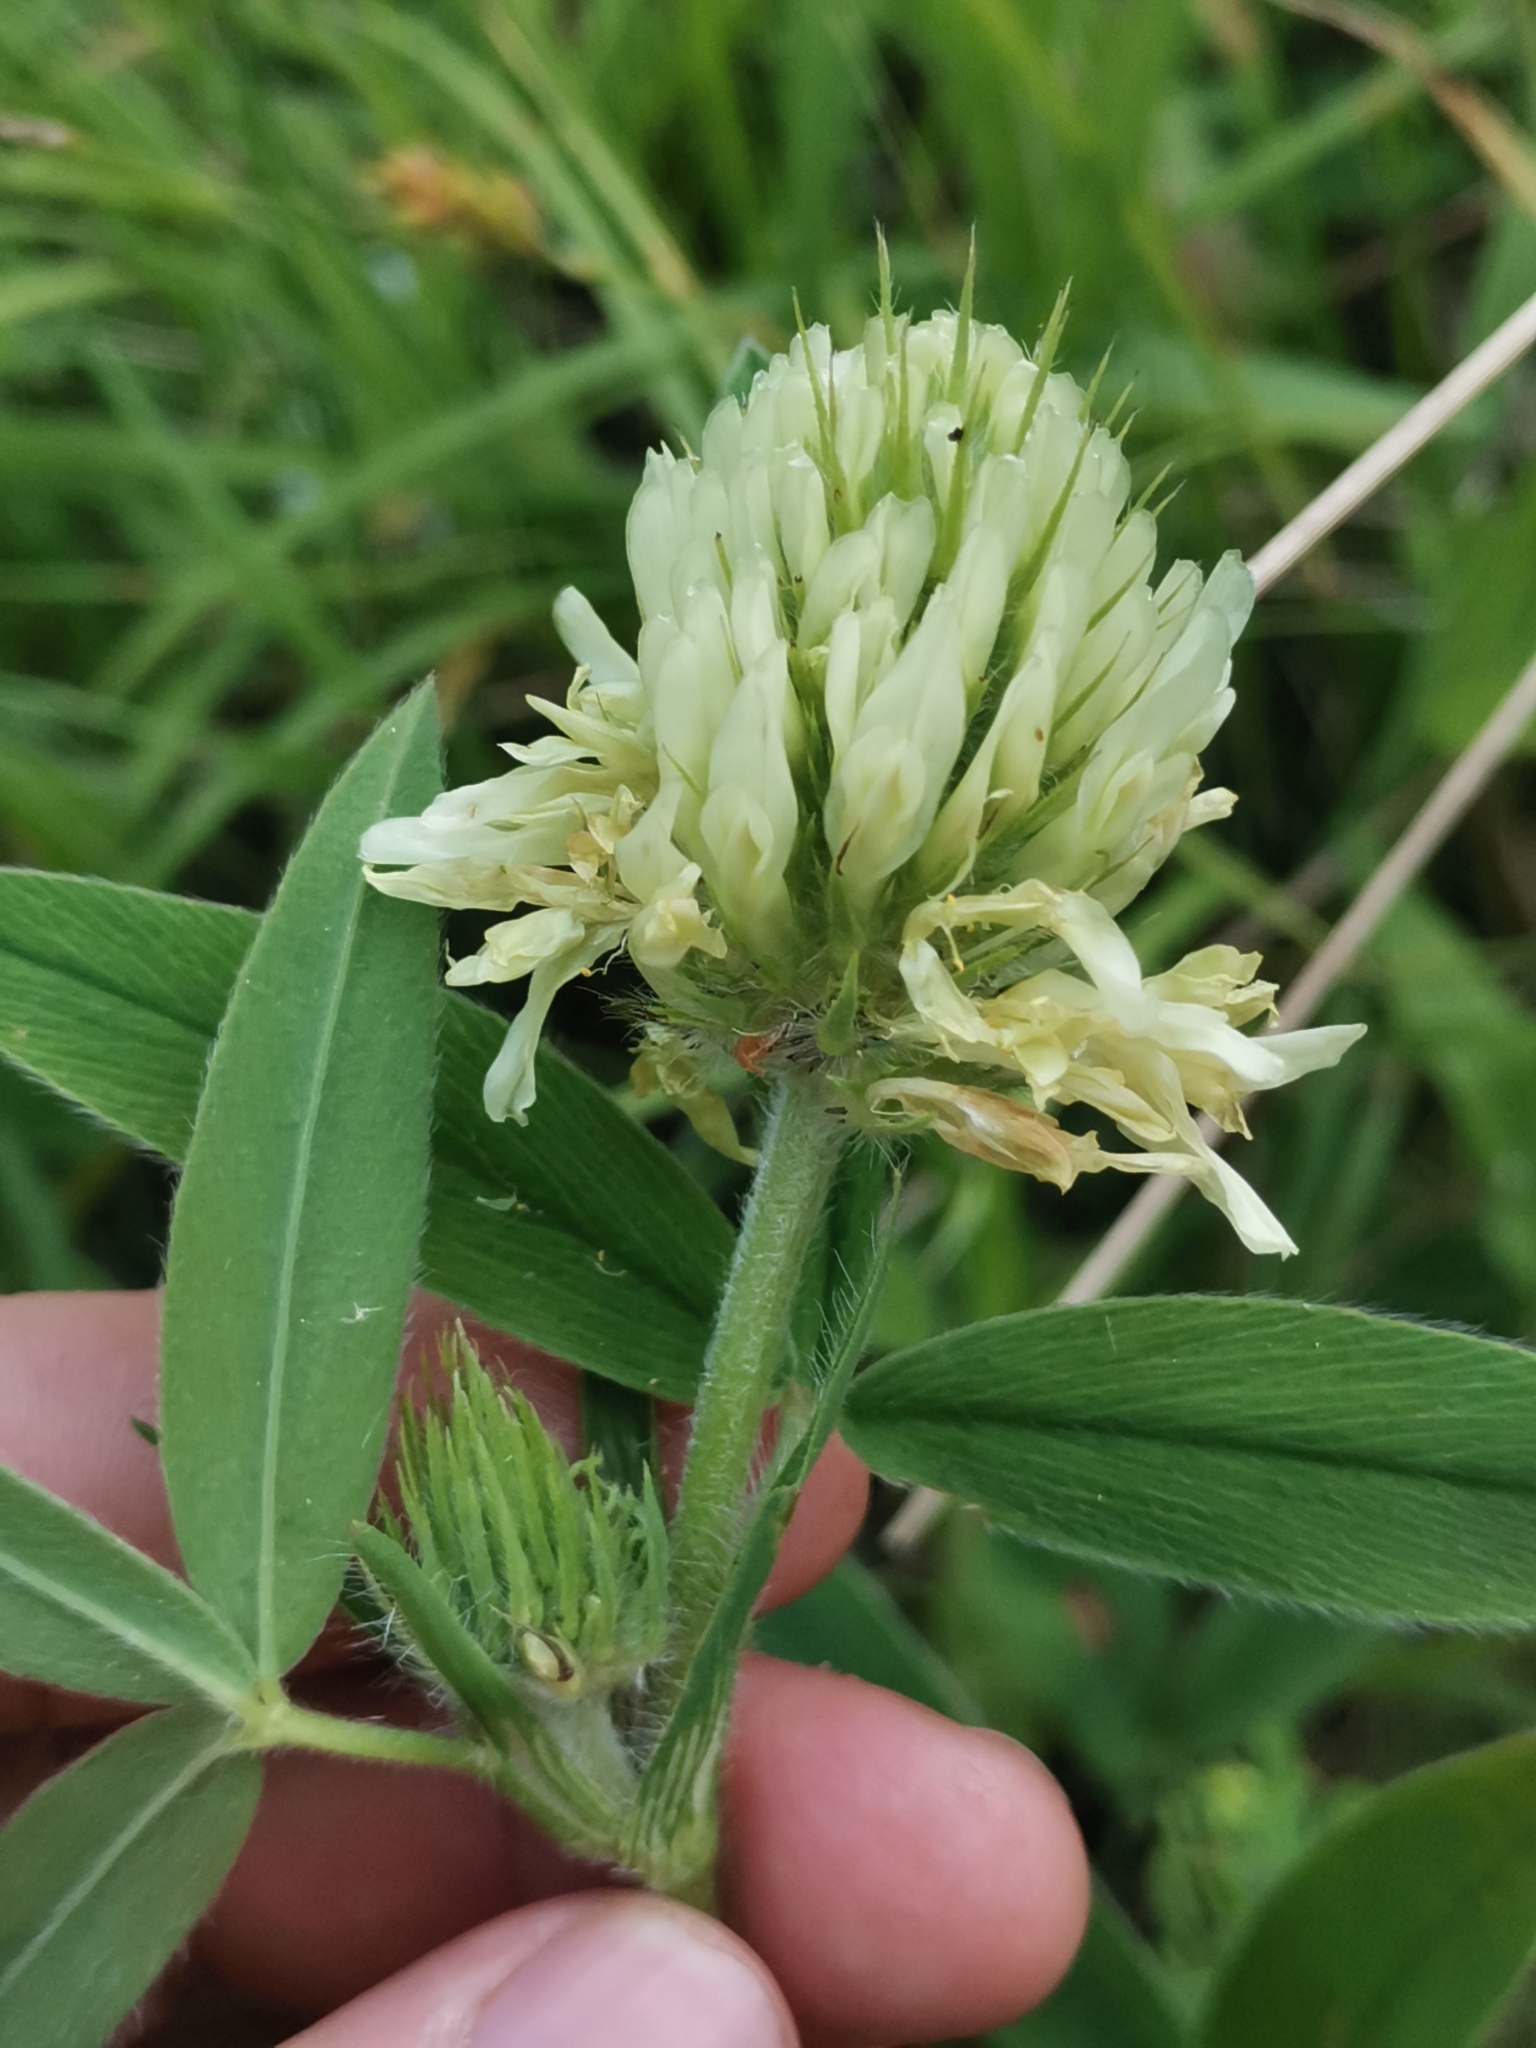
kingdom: Plantae
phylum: Tracheophyta
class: Magnoliopsida
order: Fabales
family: Fabaceae
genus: Trifolium
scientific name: Trifolium pannonicum
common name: Hungarian clover
